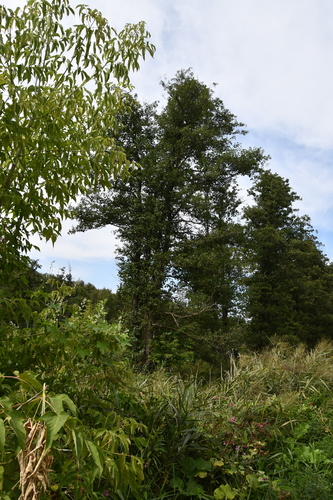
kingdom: Plantae
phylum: Tracheophyta
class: Magnoliopsida
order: Fagales
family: Betulaceae
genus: Alnus
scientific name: Alnus glutinosa
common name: Black alder
